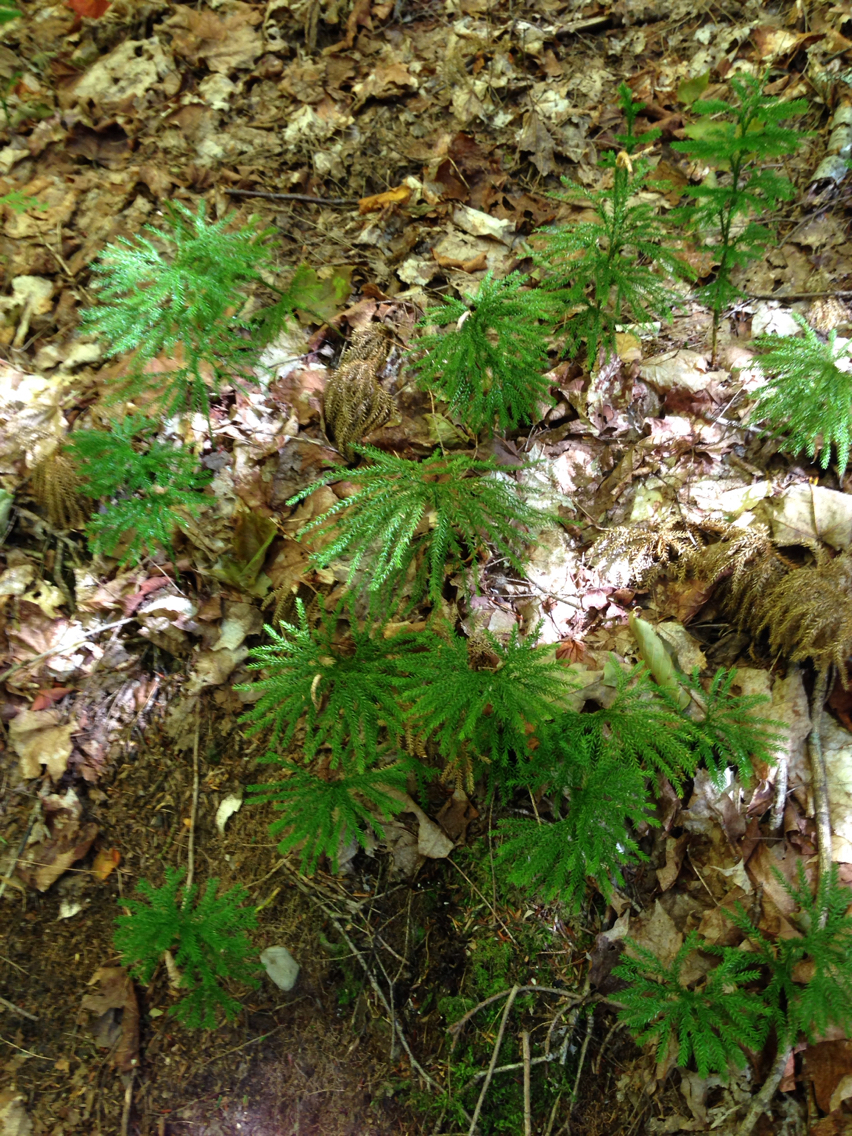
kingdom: Plantae
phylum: Tracheophyta
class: Lycopodiopsida
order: Lycopodiales
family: Lycopodiaceae
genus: Dendrolycopodium
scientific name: Dendrolycopodium obscurum
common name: Common ground-pine
